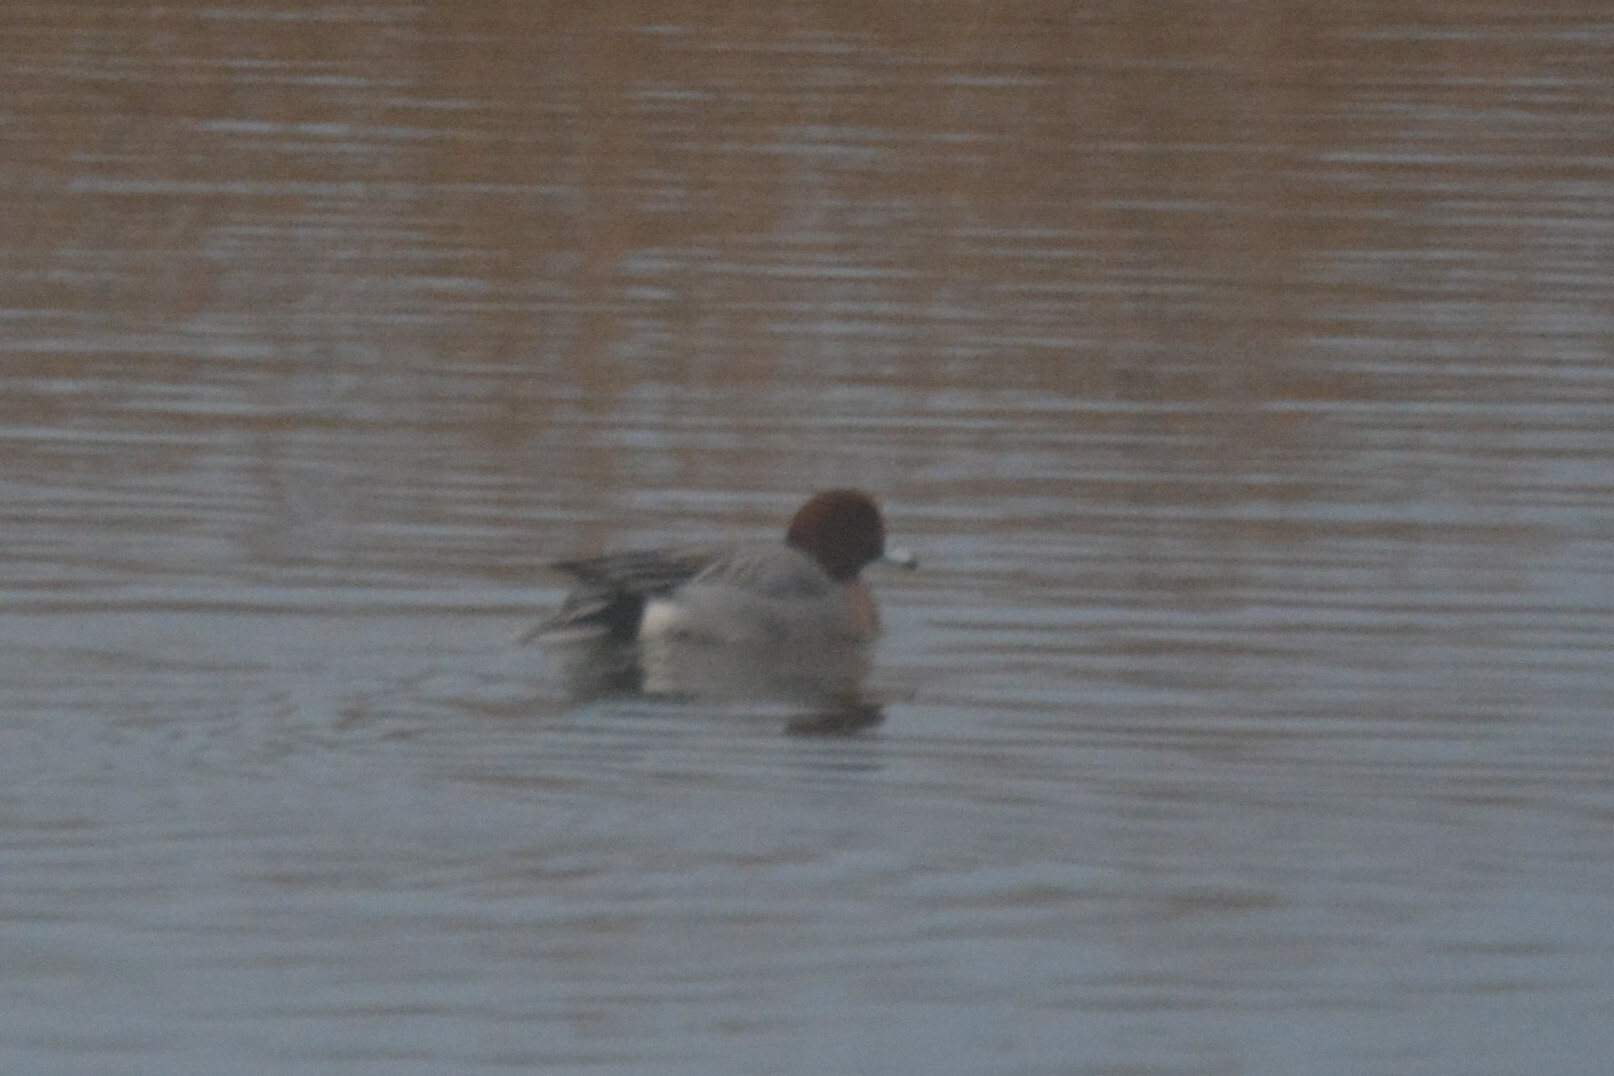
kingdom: Animalia
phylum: Chordata
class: Aves
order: Anseriformes
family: Anatidae
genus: Mareca
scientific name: Mareca penelope
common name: Eurasian wigeon
